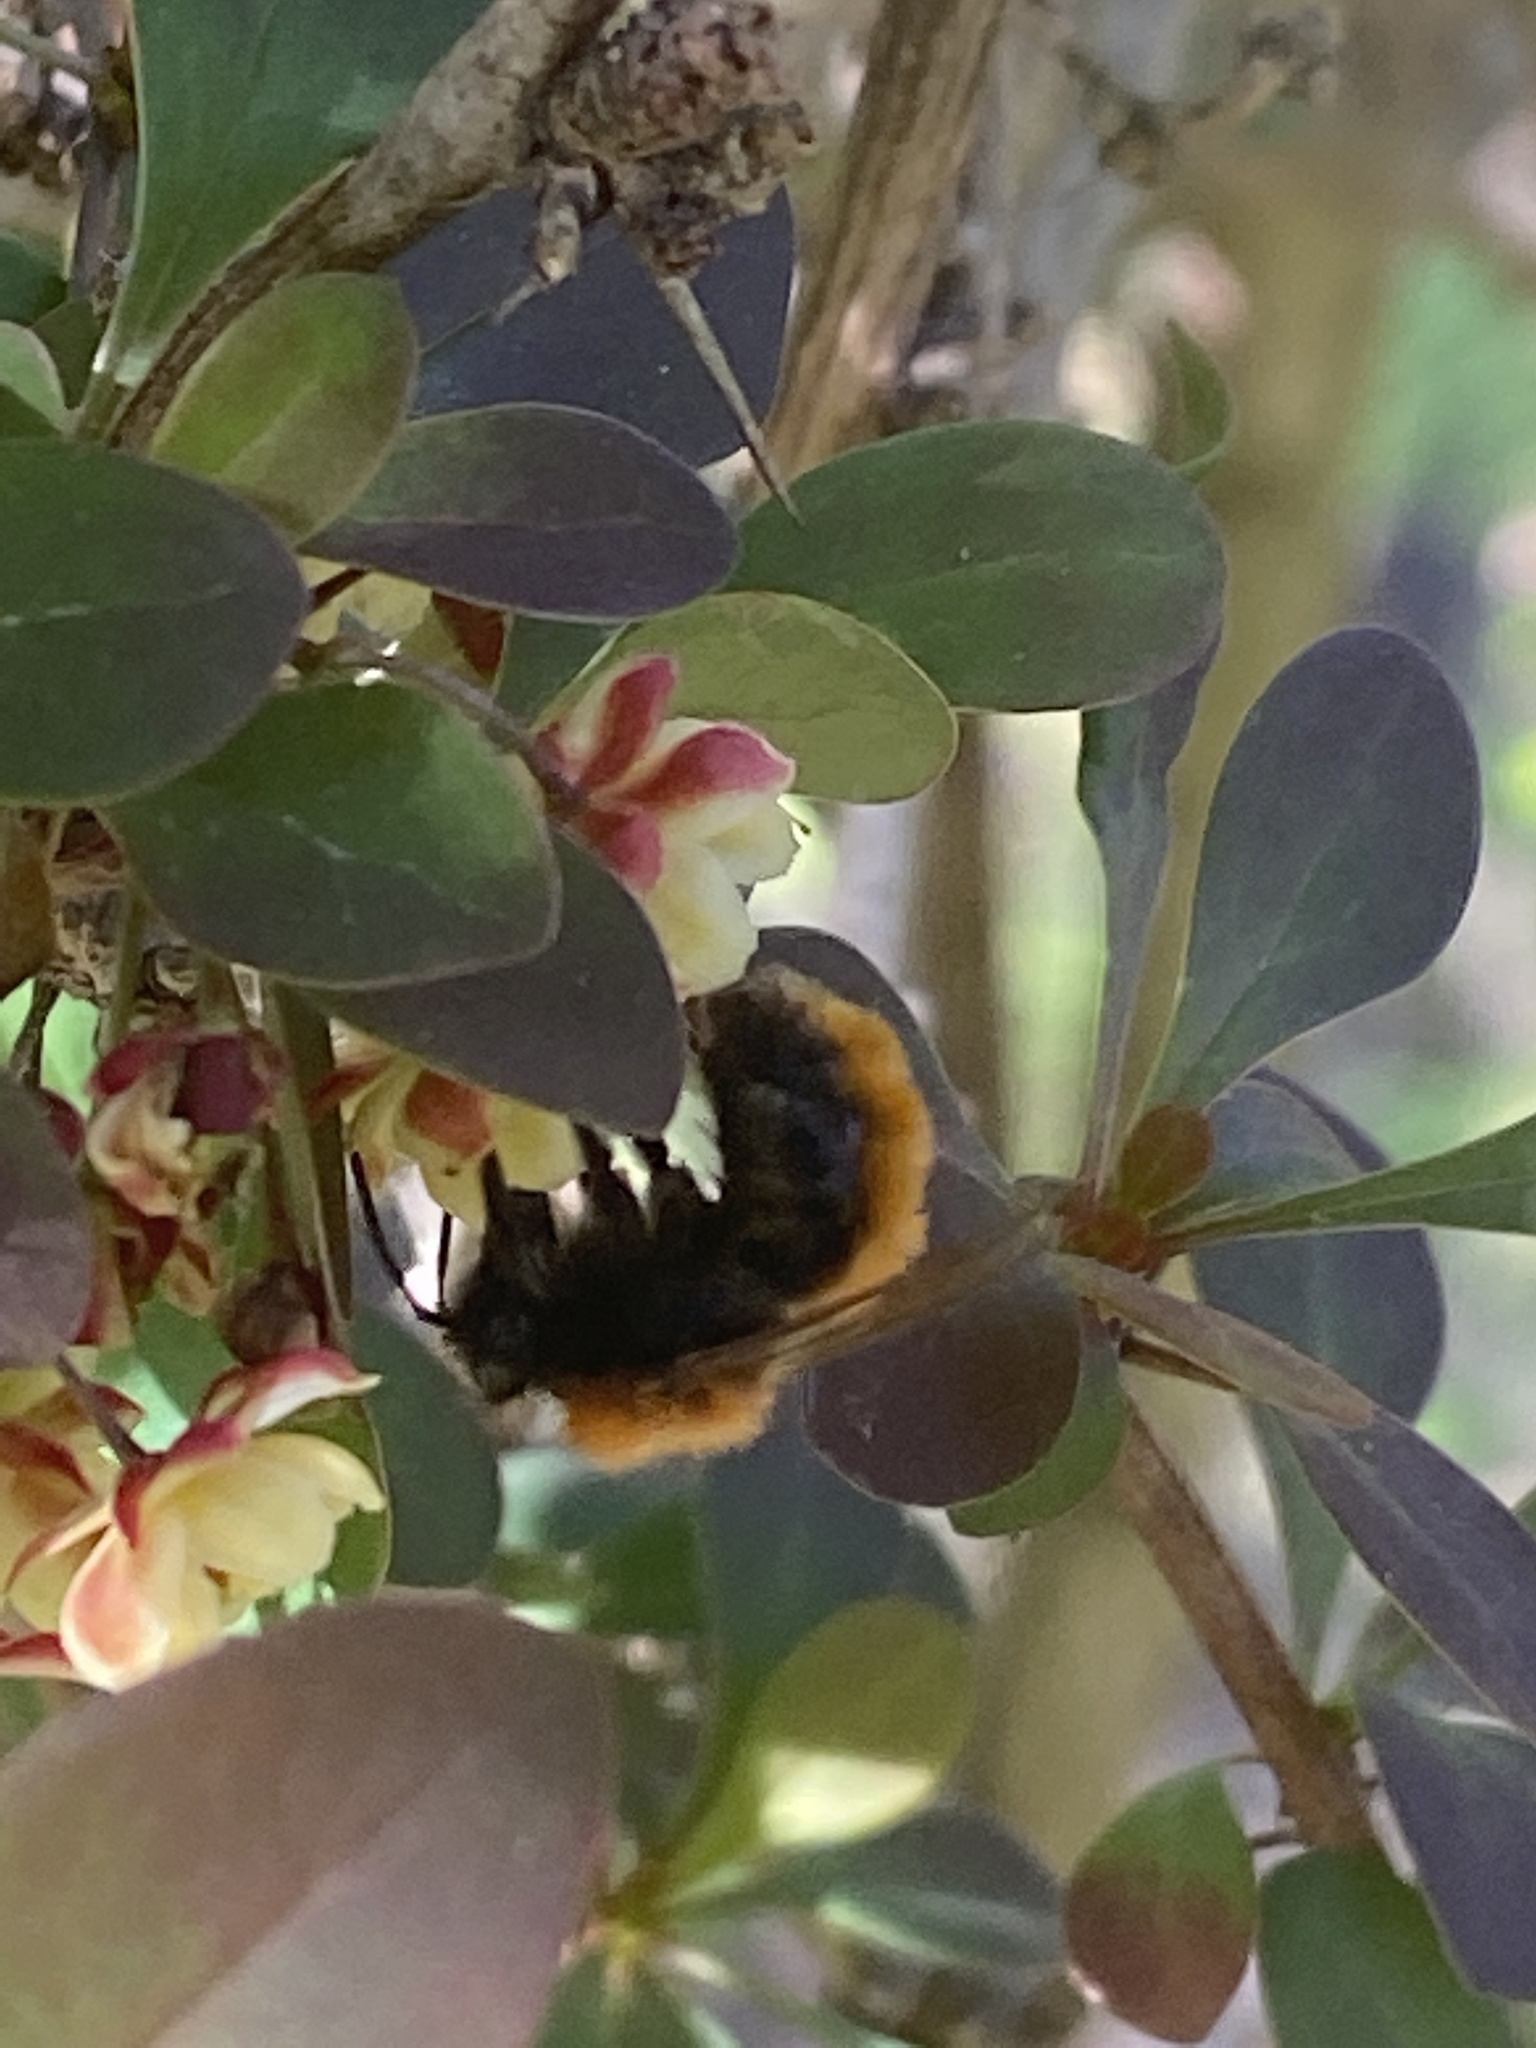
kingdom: Animalia
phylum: Arthropoda
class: Insecta
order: Hymenoptera
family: Andrenidae
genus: Andrena
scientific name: Andrena fulva
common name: Tawny mining bee
